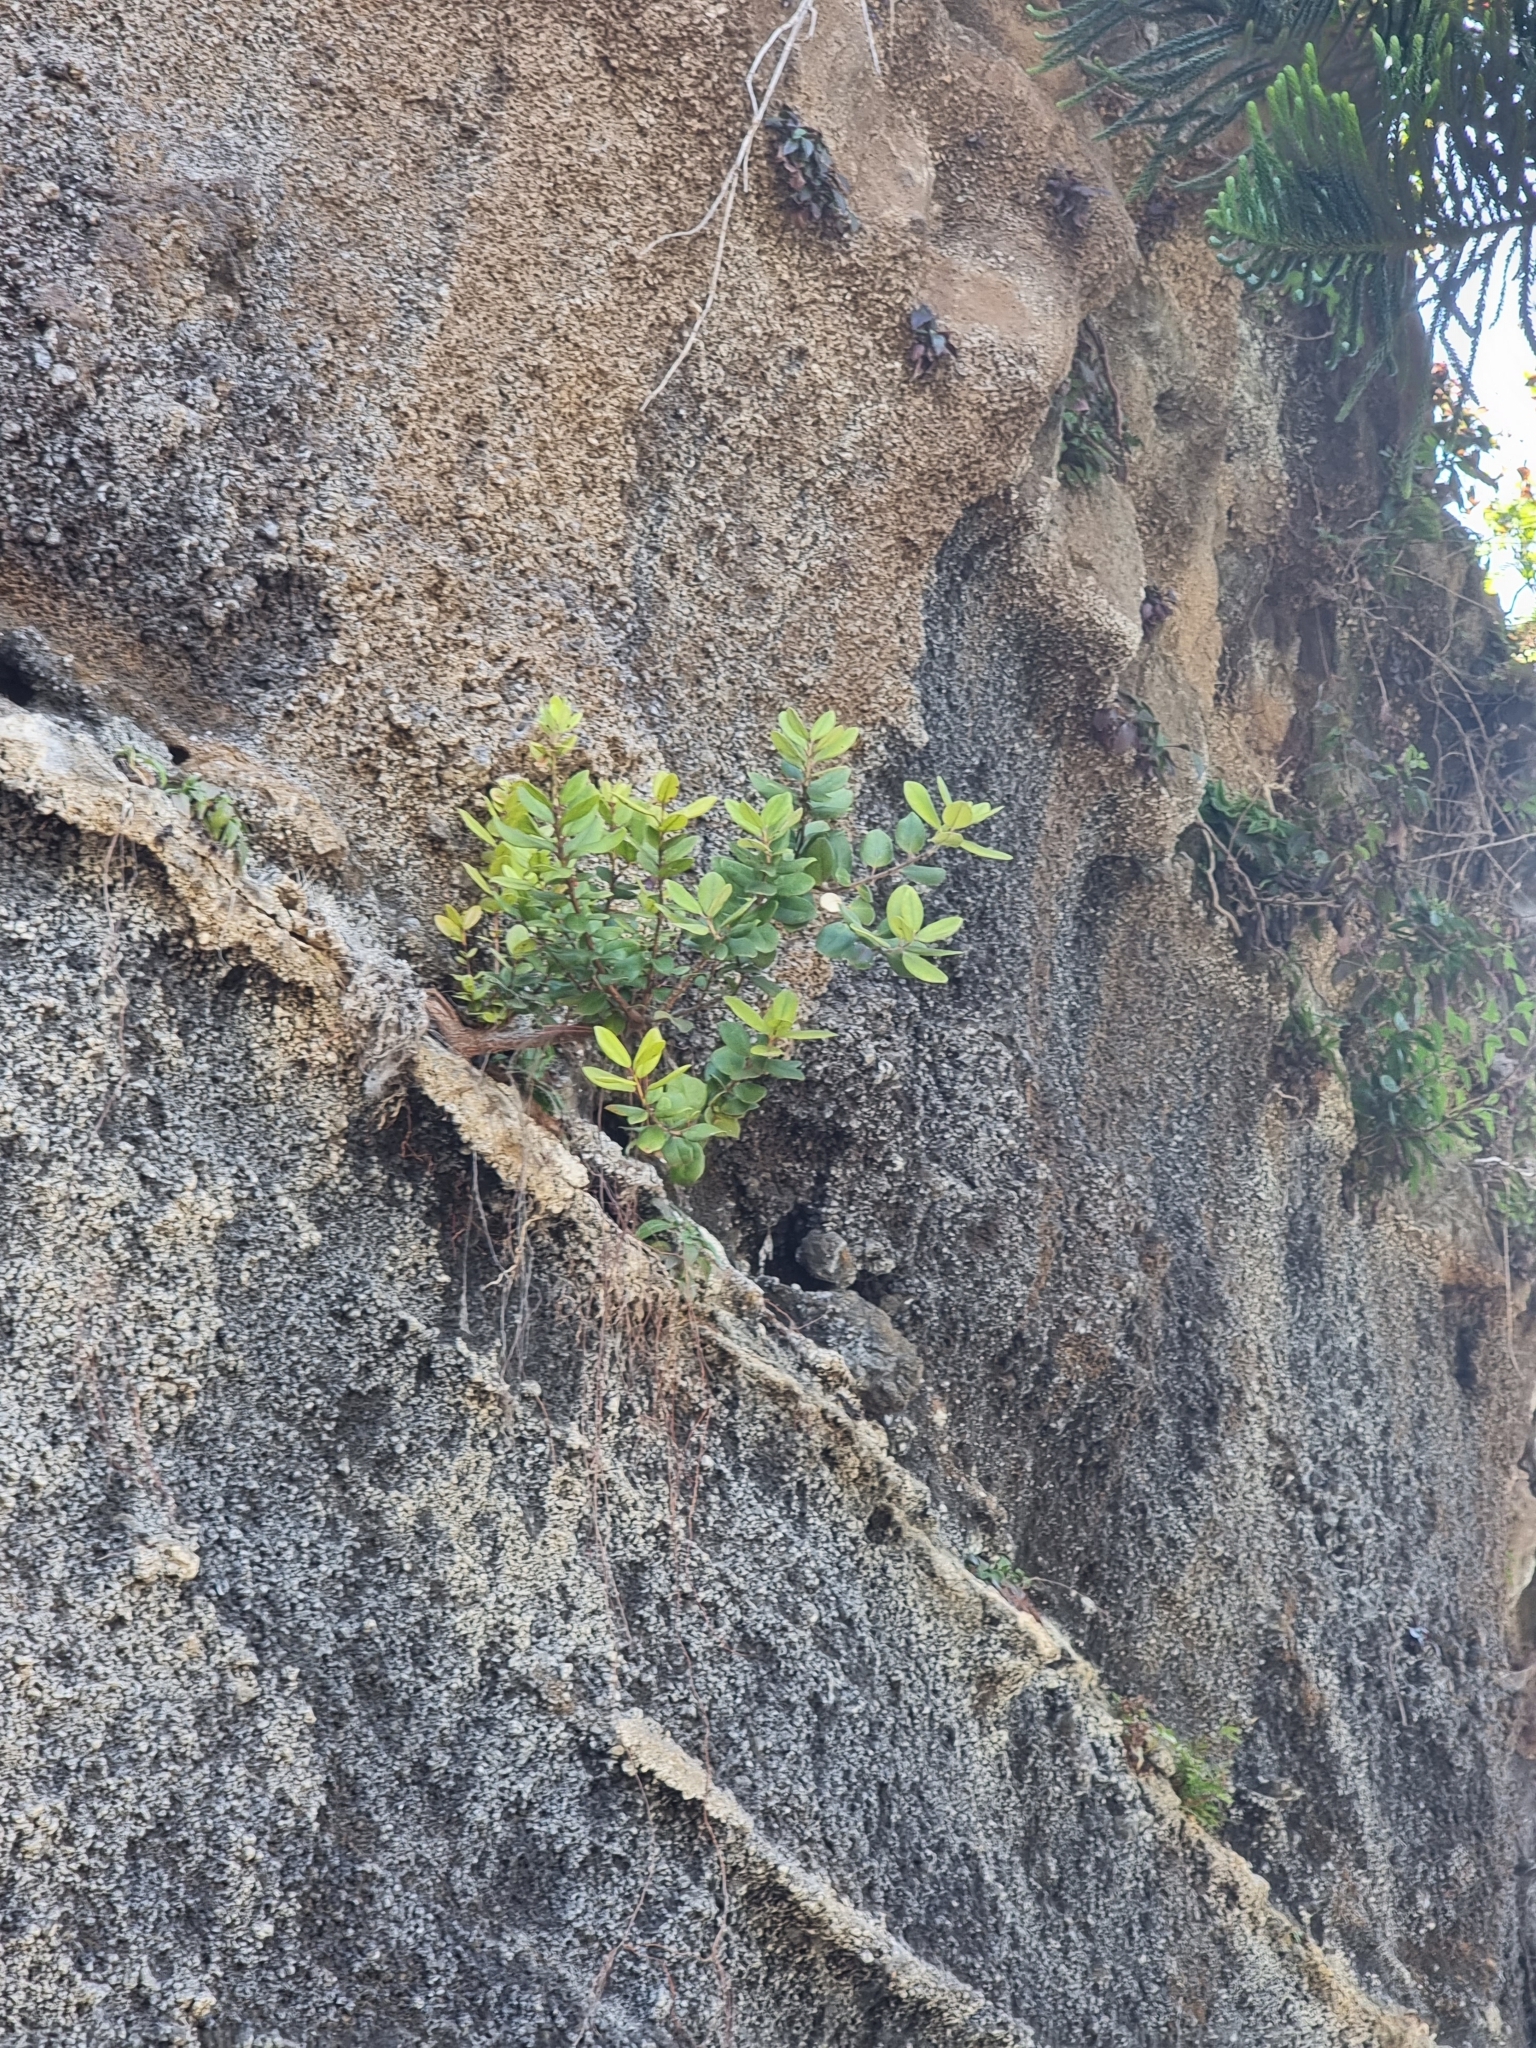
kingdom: Plantae
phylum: Tracheophyta
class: Magnoliopsida
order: Myrtales
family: Myrtaceae
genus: Metrosideros
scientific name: Metrosideros excelsa
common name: New zealand christmastree
